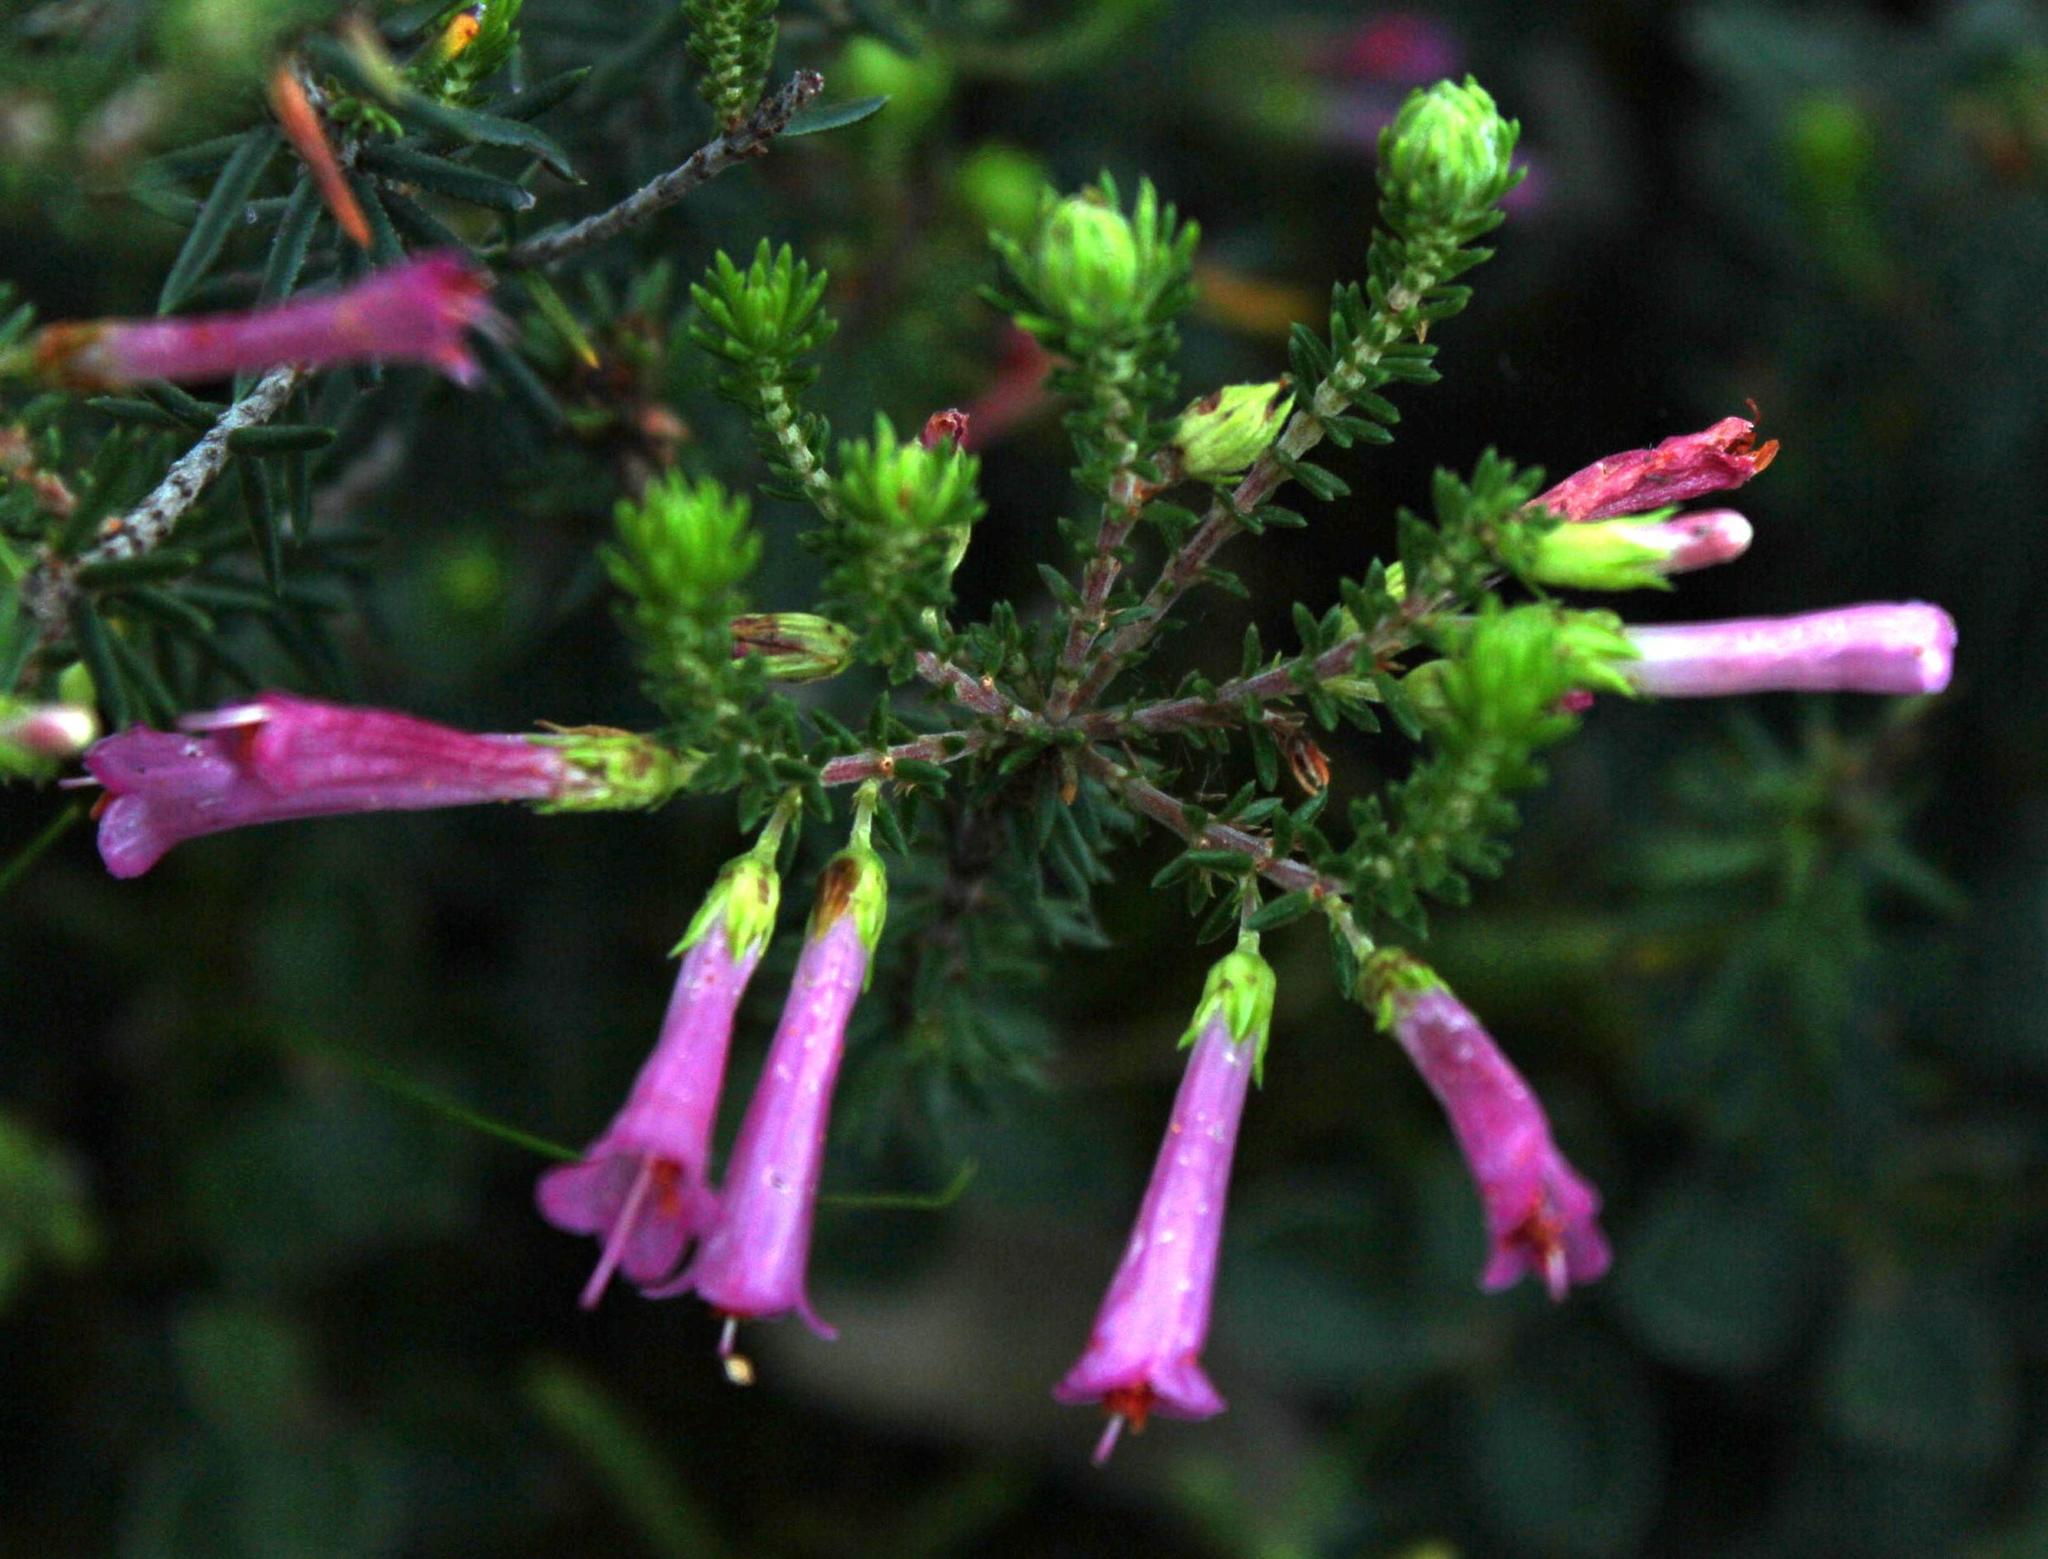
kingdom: Plantae
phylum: Tracheophyta
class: Magnoliopsida
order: Ericales
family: Ericaceae
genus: Erica
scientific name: Erica abietina
